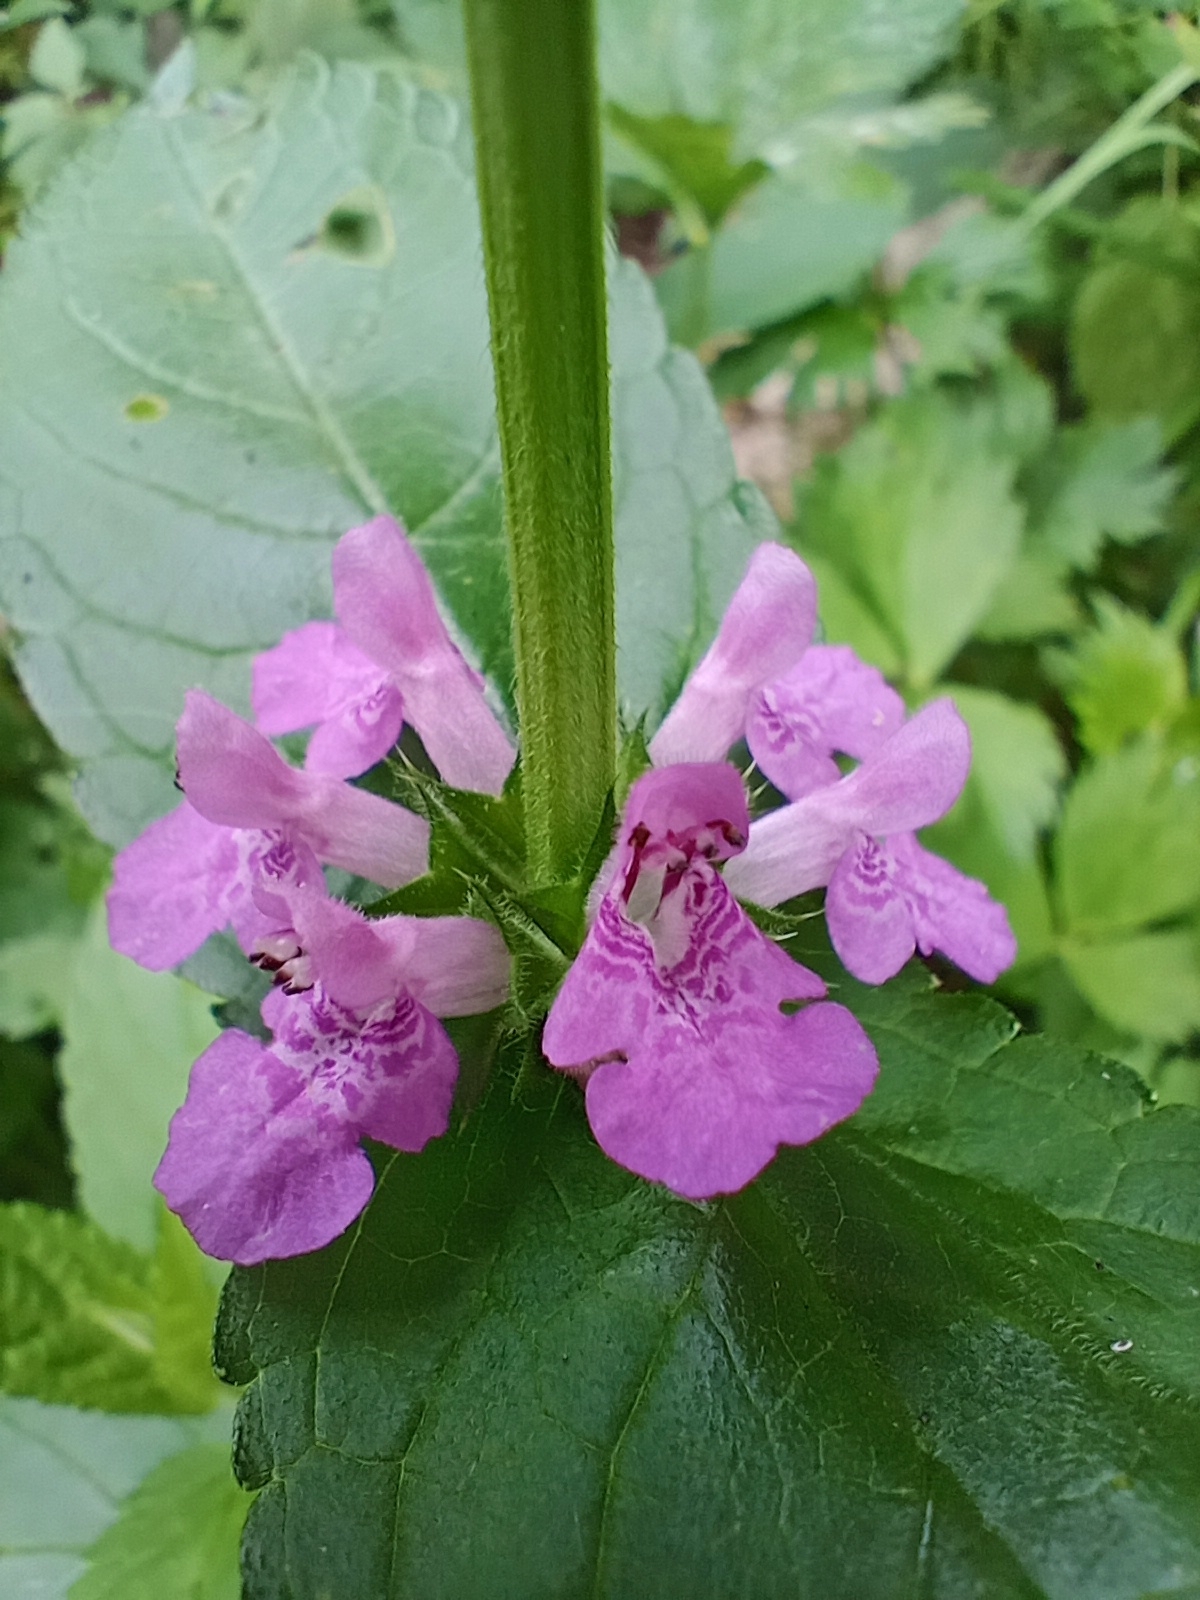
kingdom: Plantae
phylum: Tracheophyta
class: Magnoliopsida
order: Lamiales
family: Lamiaceae
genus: Stachys
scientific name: Stachys palustris
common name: Marsh woundwort
